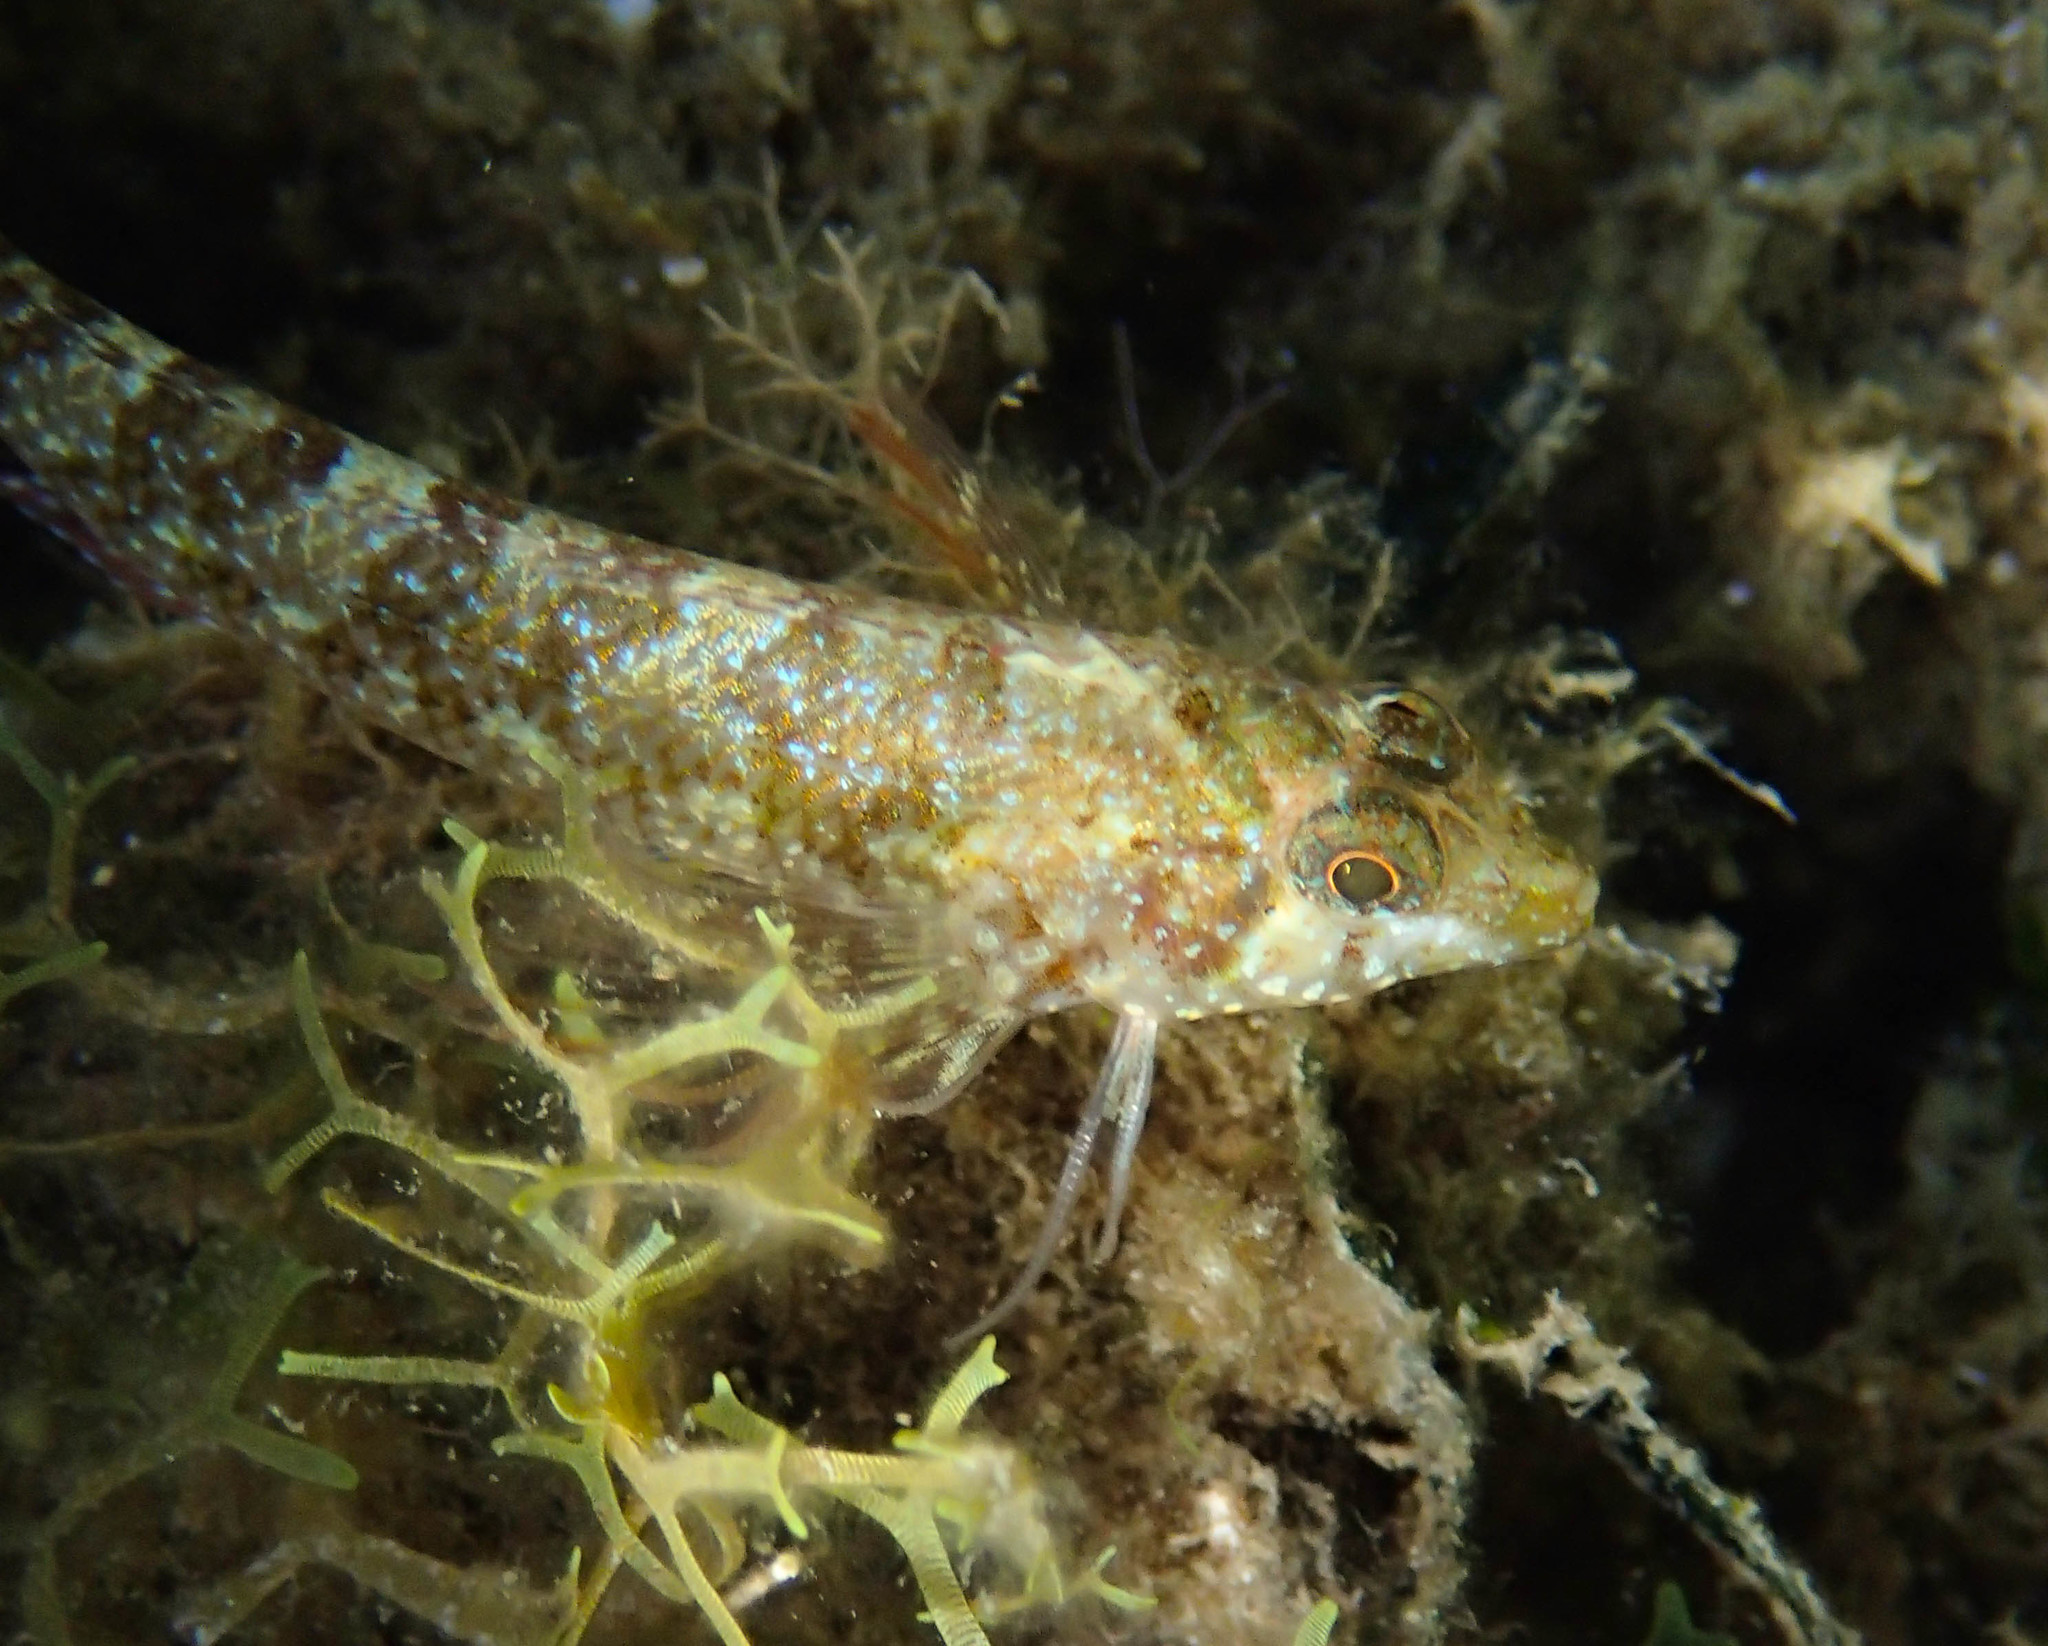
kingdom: Animalia
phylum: Chordata
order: Perciformes
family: Tripterygiidae
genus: Tripterygion
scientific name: Tripterygion tripteronotum
